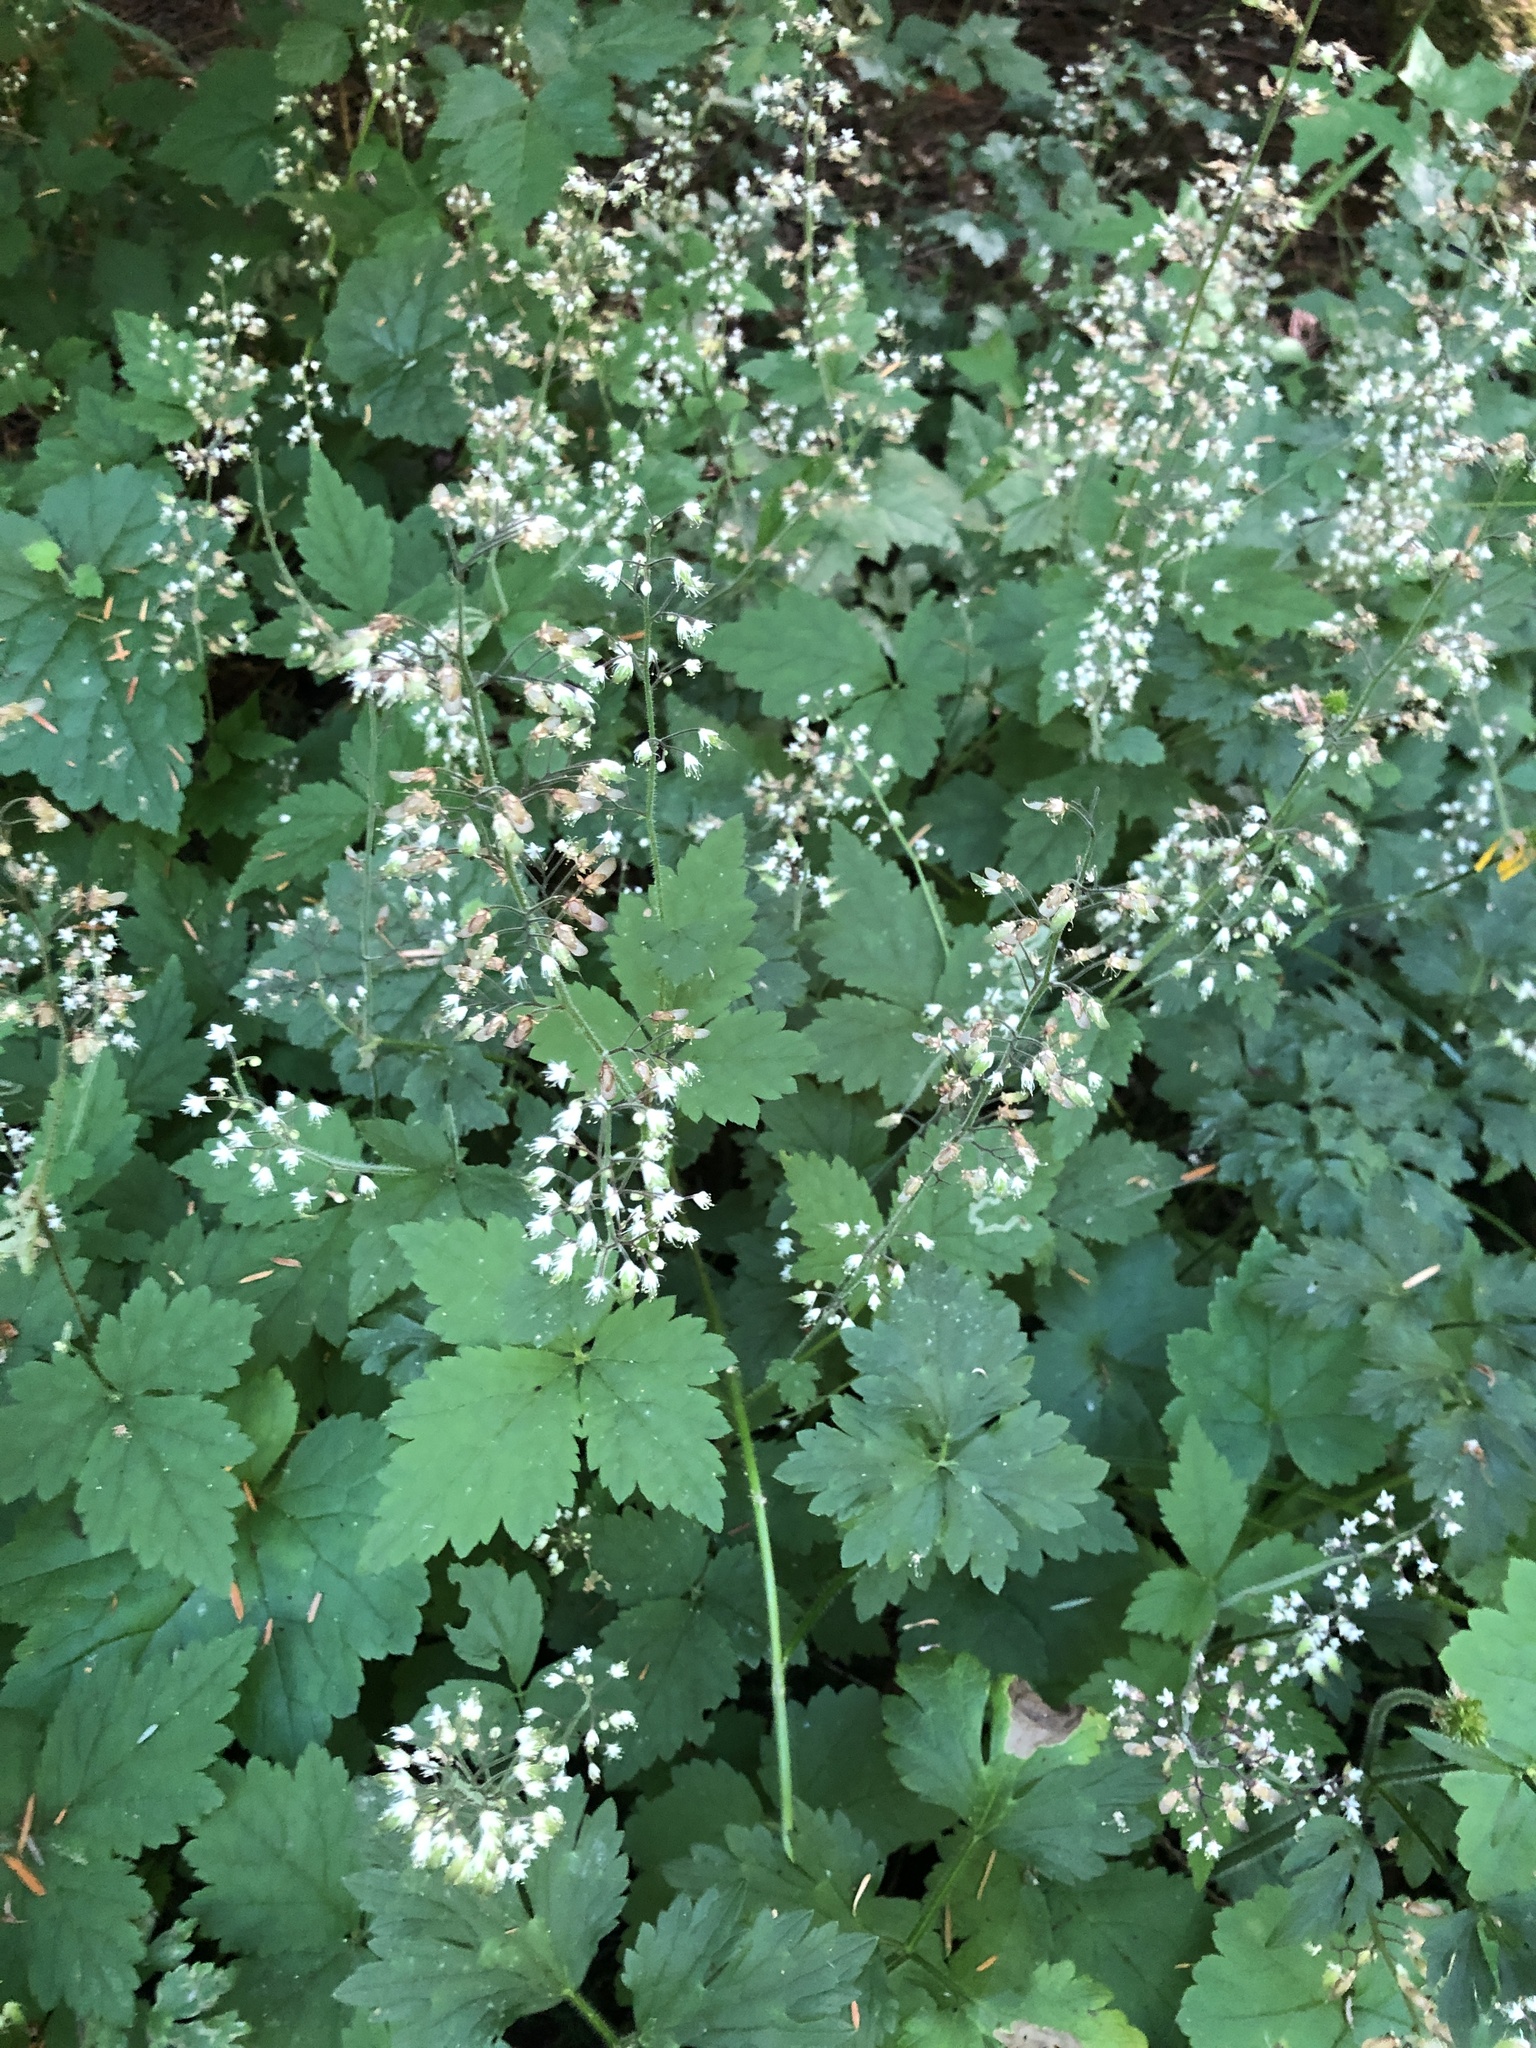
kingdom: Plantae
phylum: Tracheophyta
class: Magnoliopsida
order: Saxifragales
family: Saxifragaceae
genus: Tiarella
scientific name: Tiarella trifoliata
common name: Sugar-scoop
